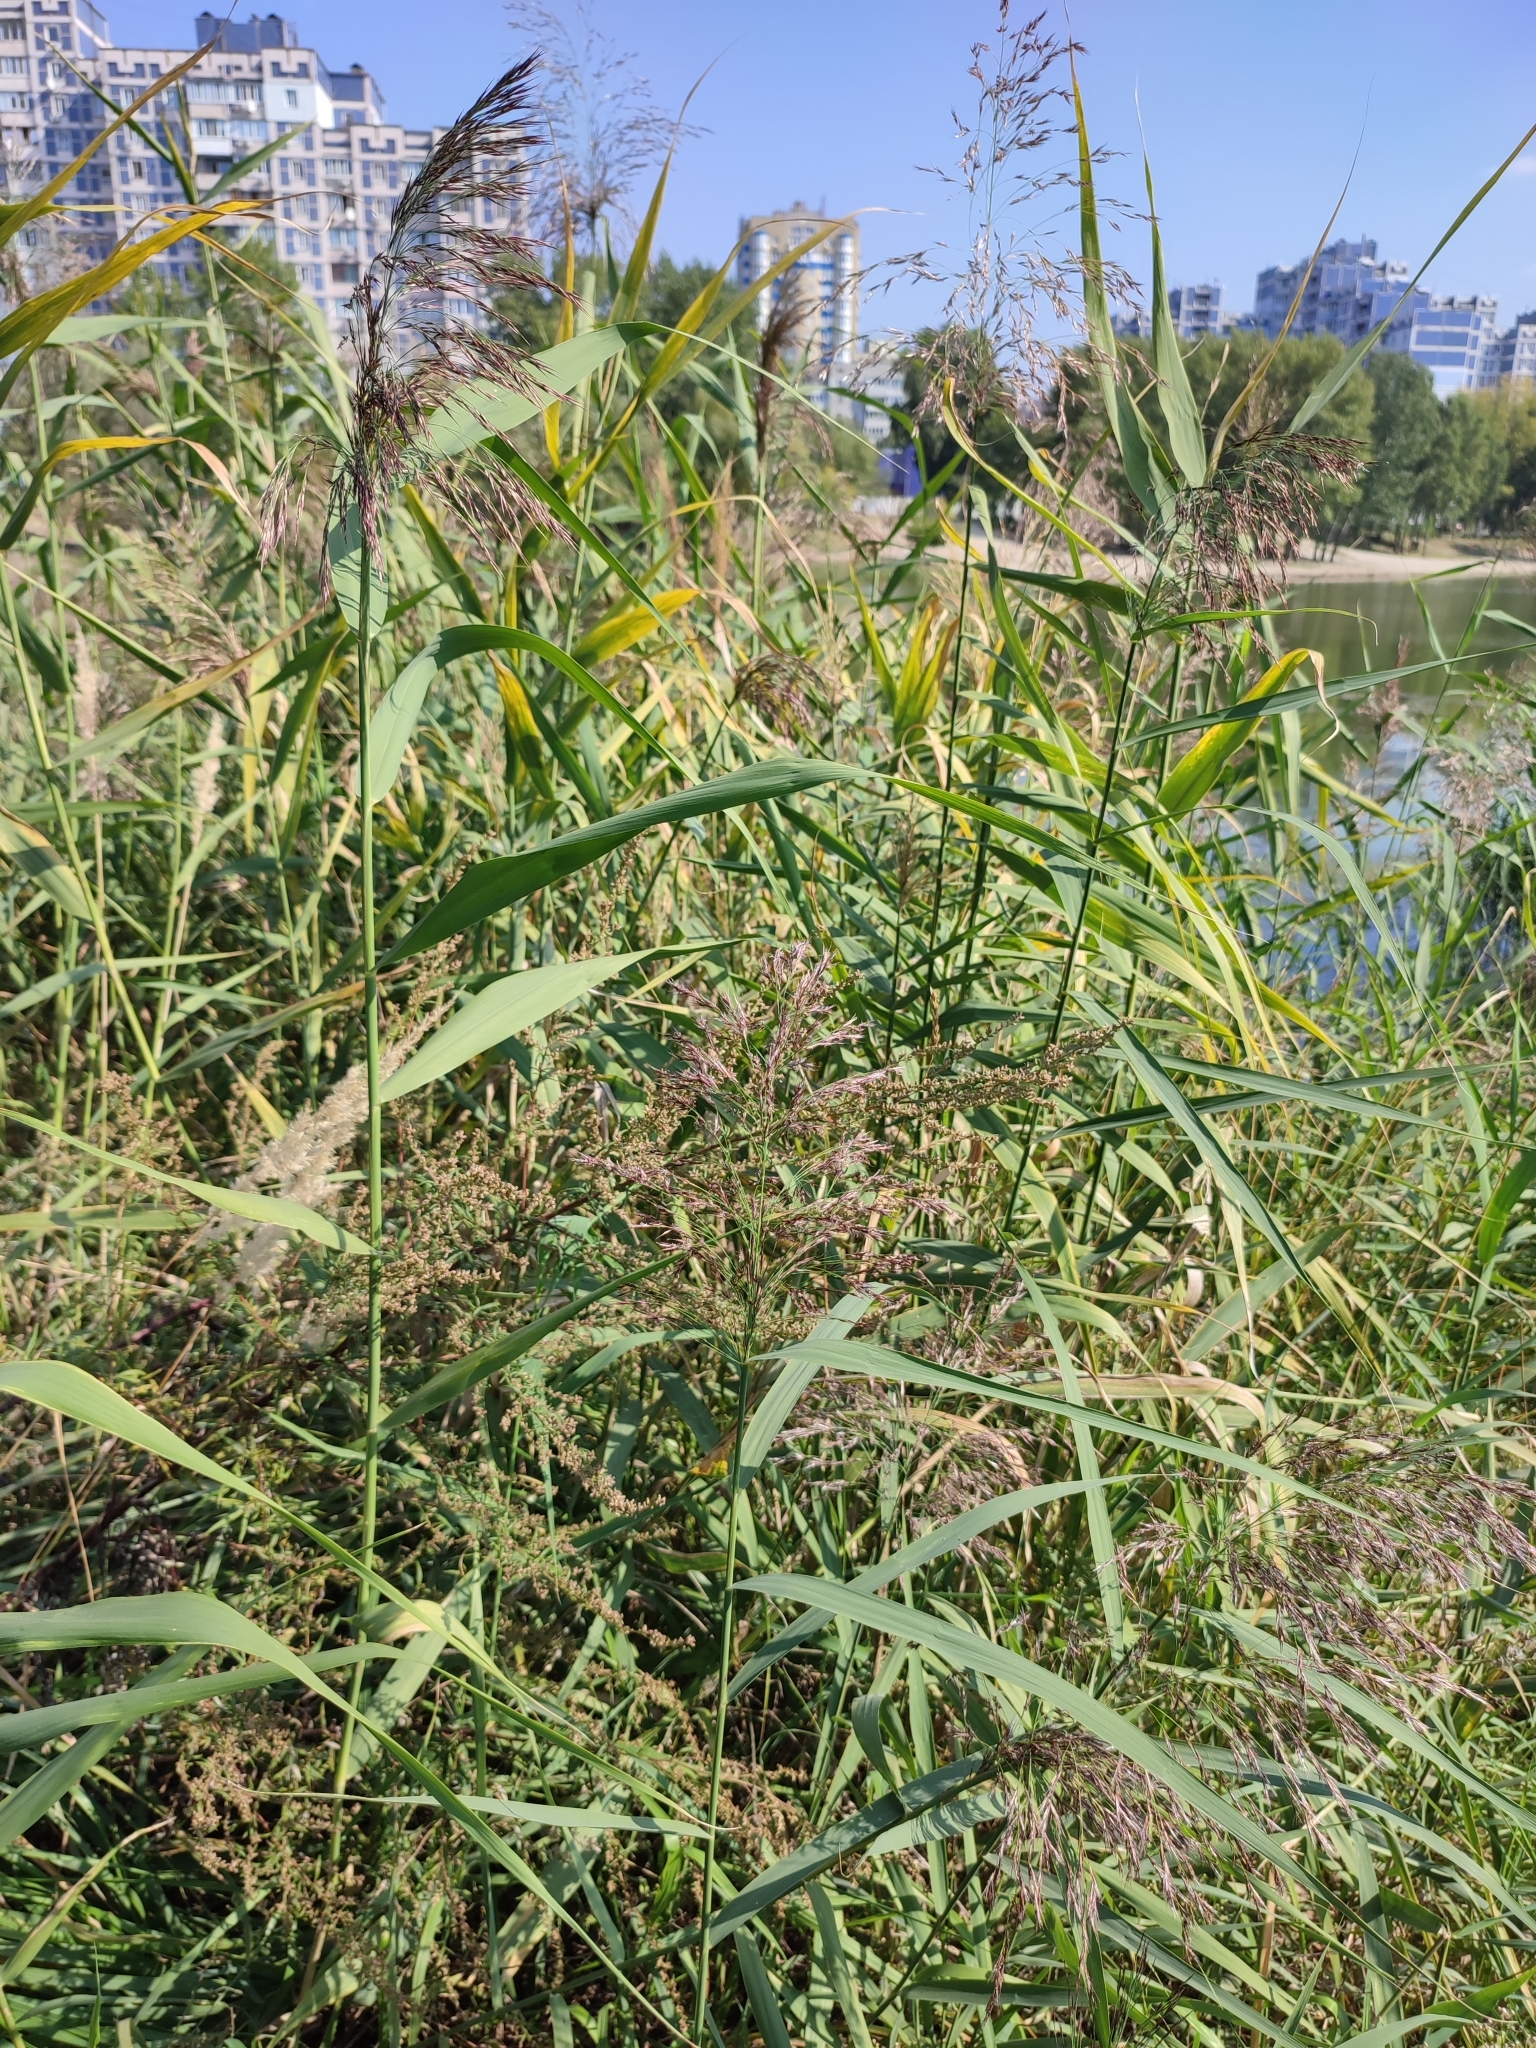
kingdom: Plantae
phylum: Tracheophyta
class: Liliopsida
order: Poales
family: Poaceae
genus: Phragmites
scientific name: Phragmites australis
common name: Common reed
